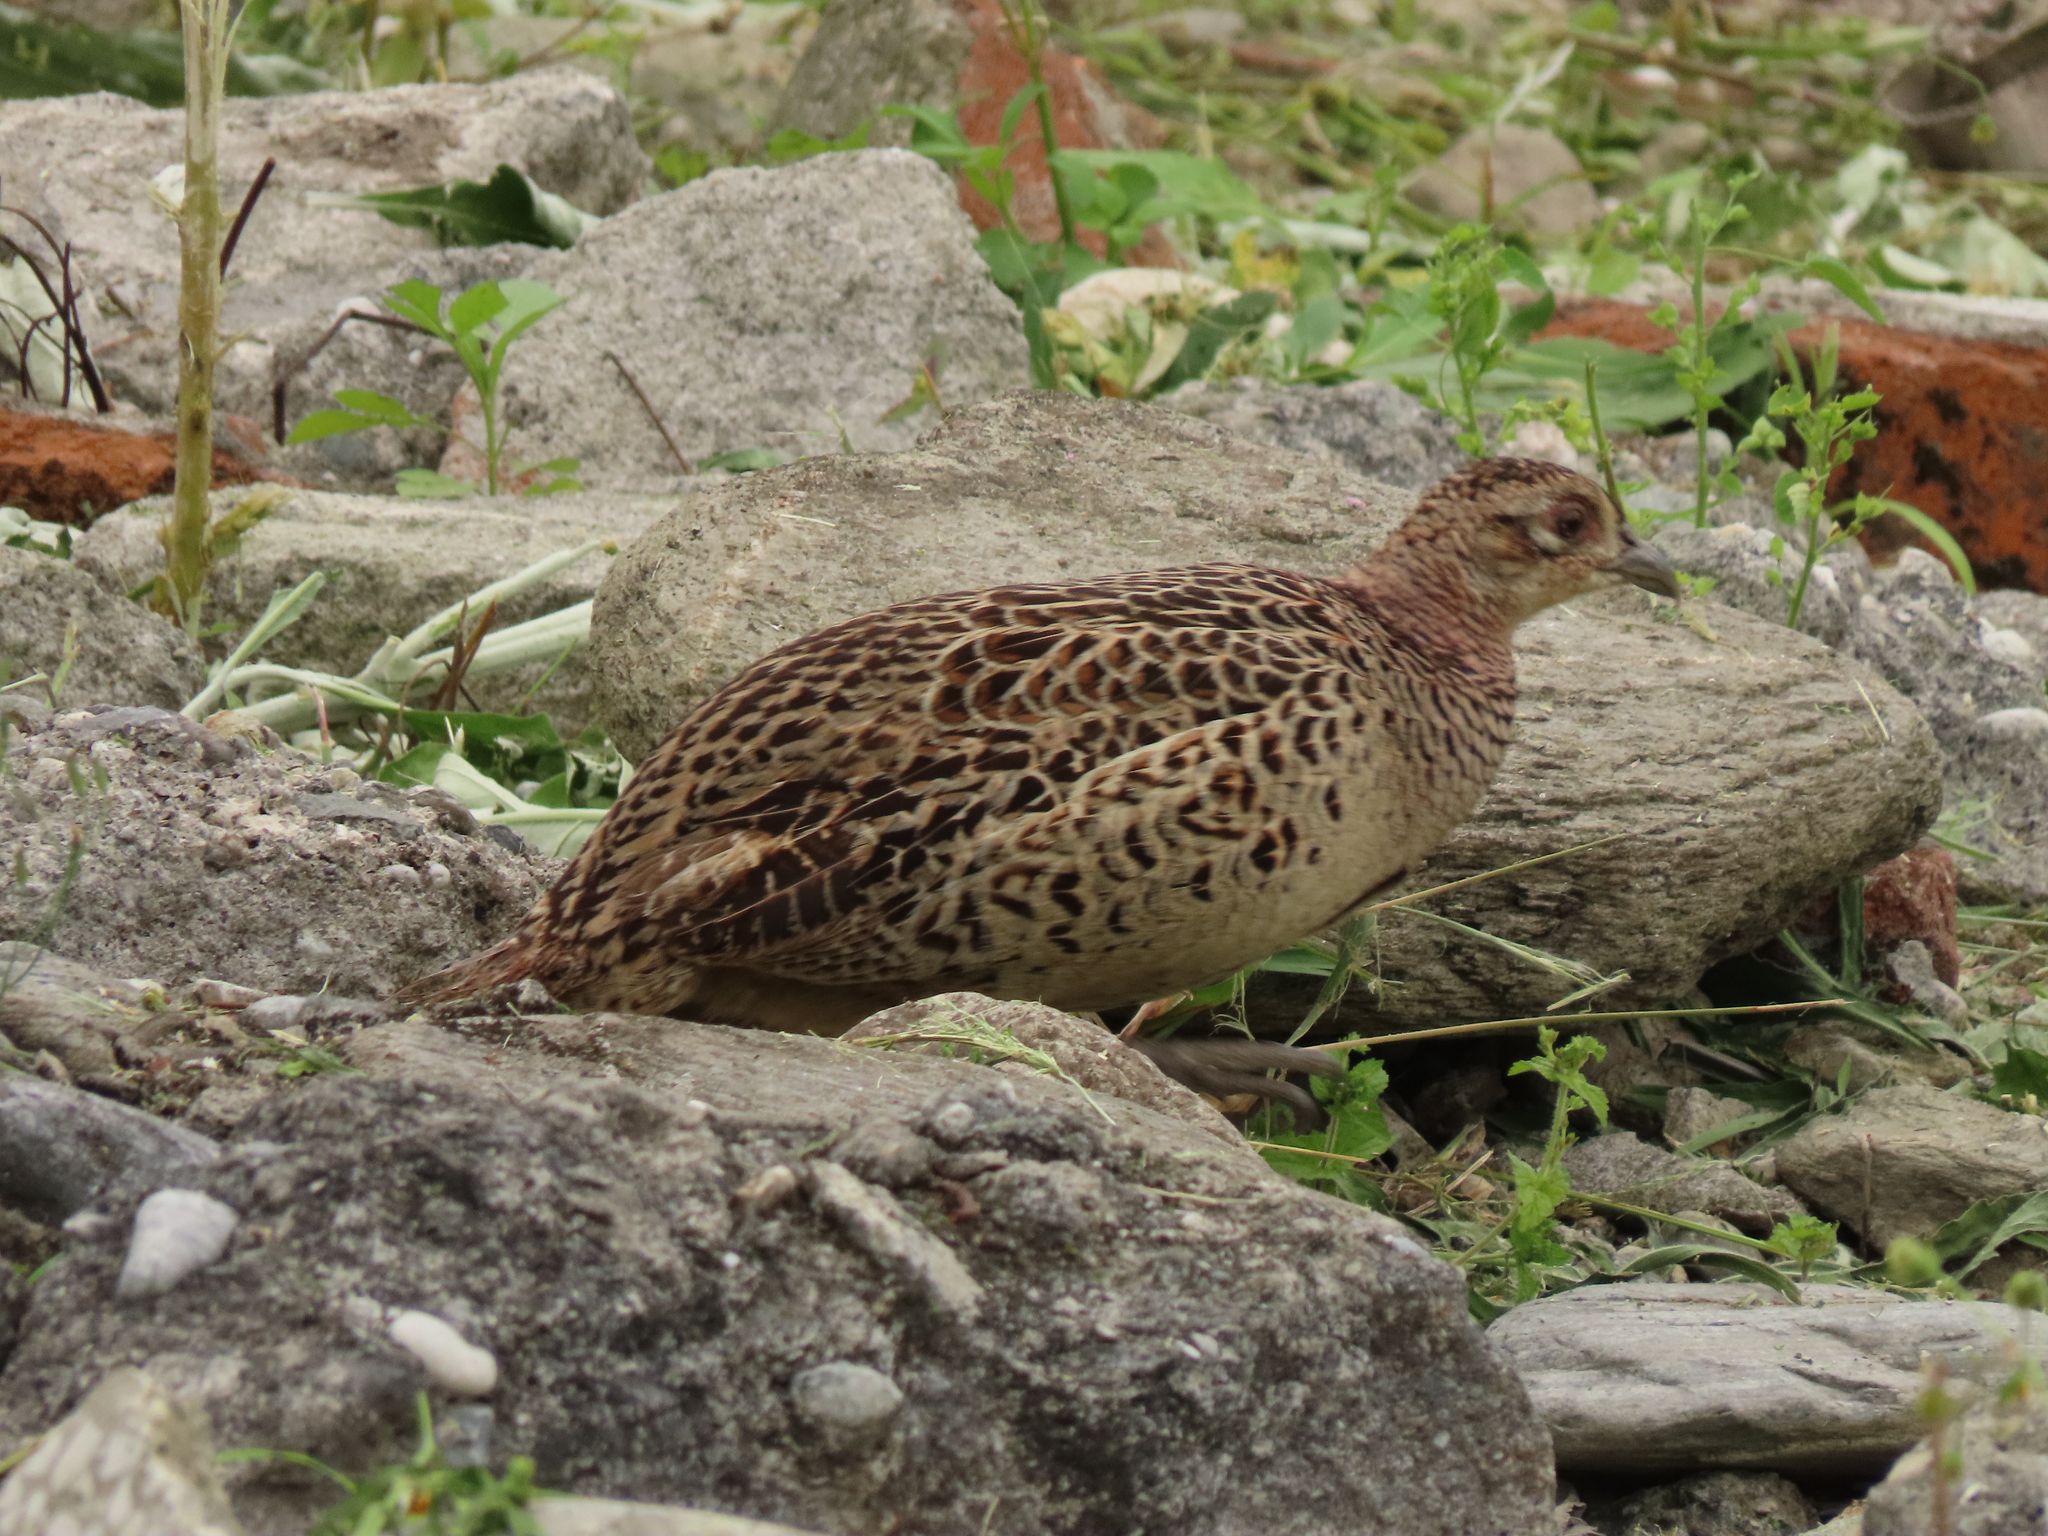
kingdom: Animalia
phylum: Chordata
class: Aves
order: Galliformes
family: Phasianidae
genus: Phasianus
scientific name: Phasianus colchicus
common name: Common pheasant
